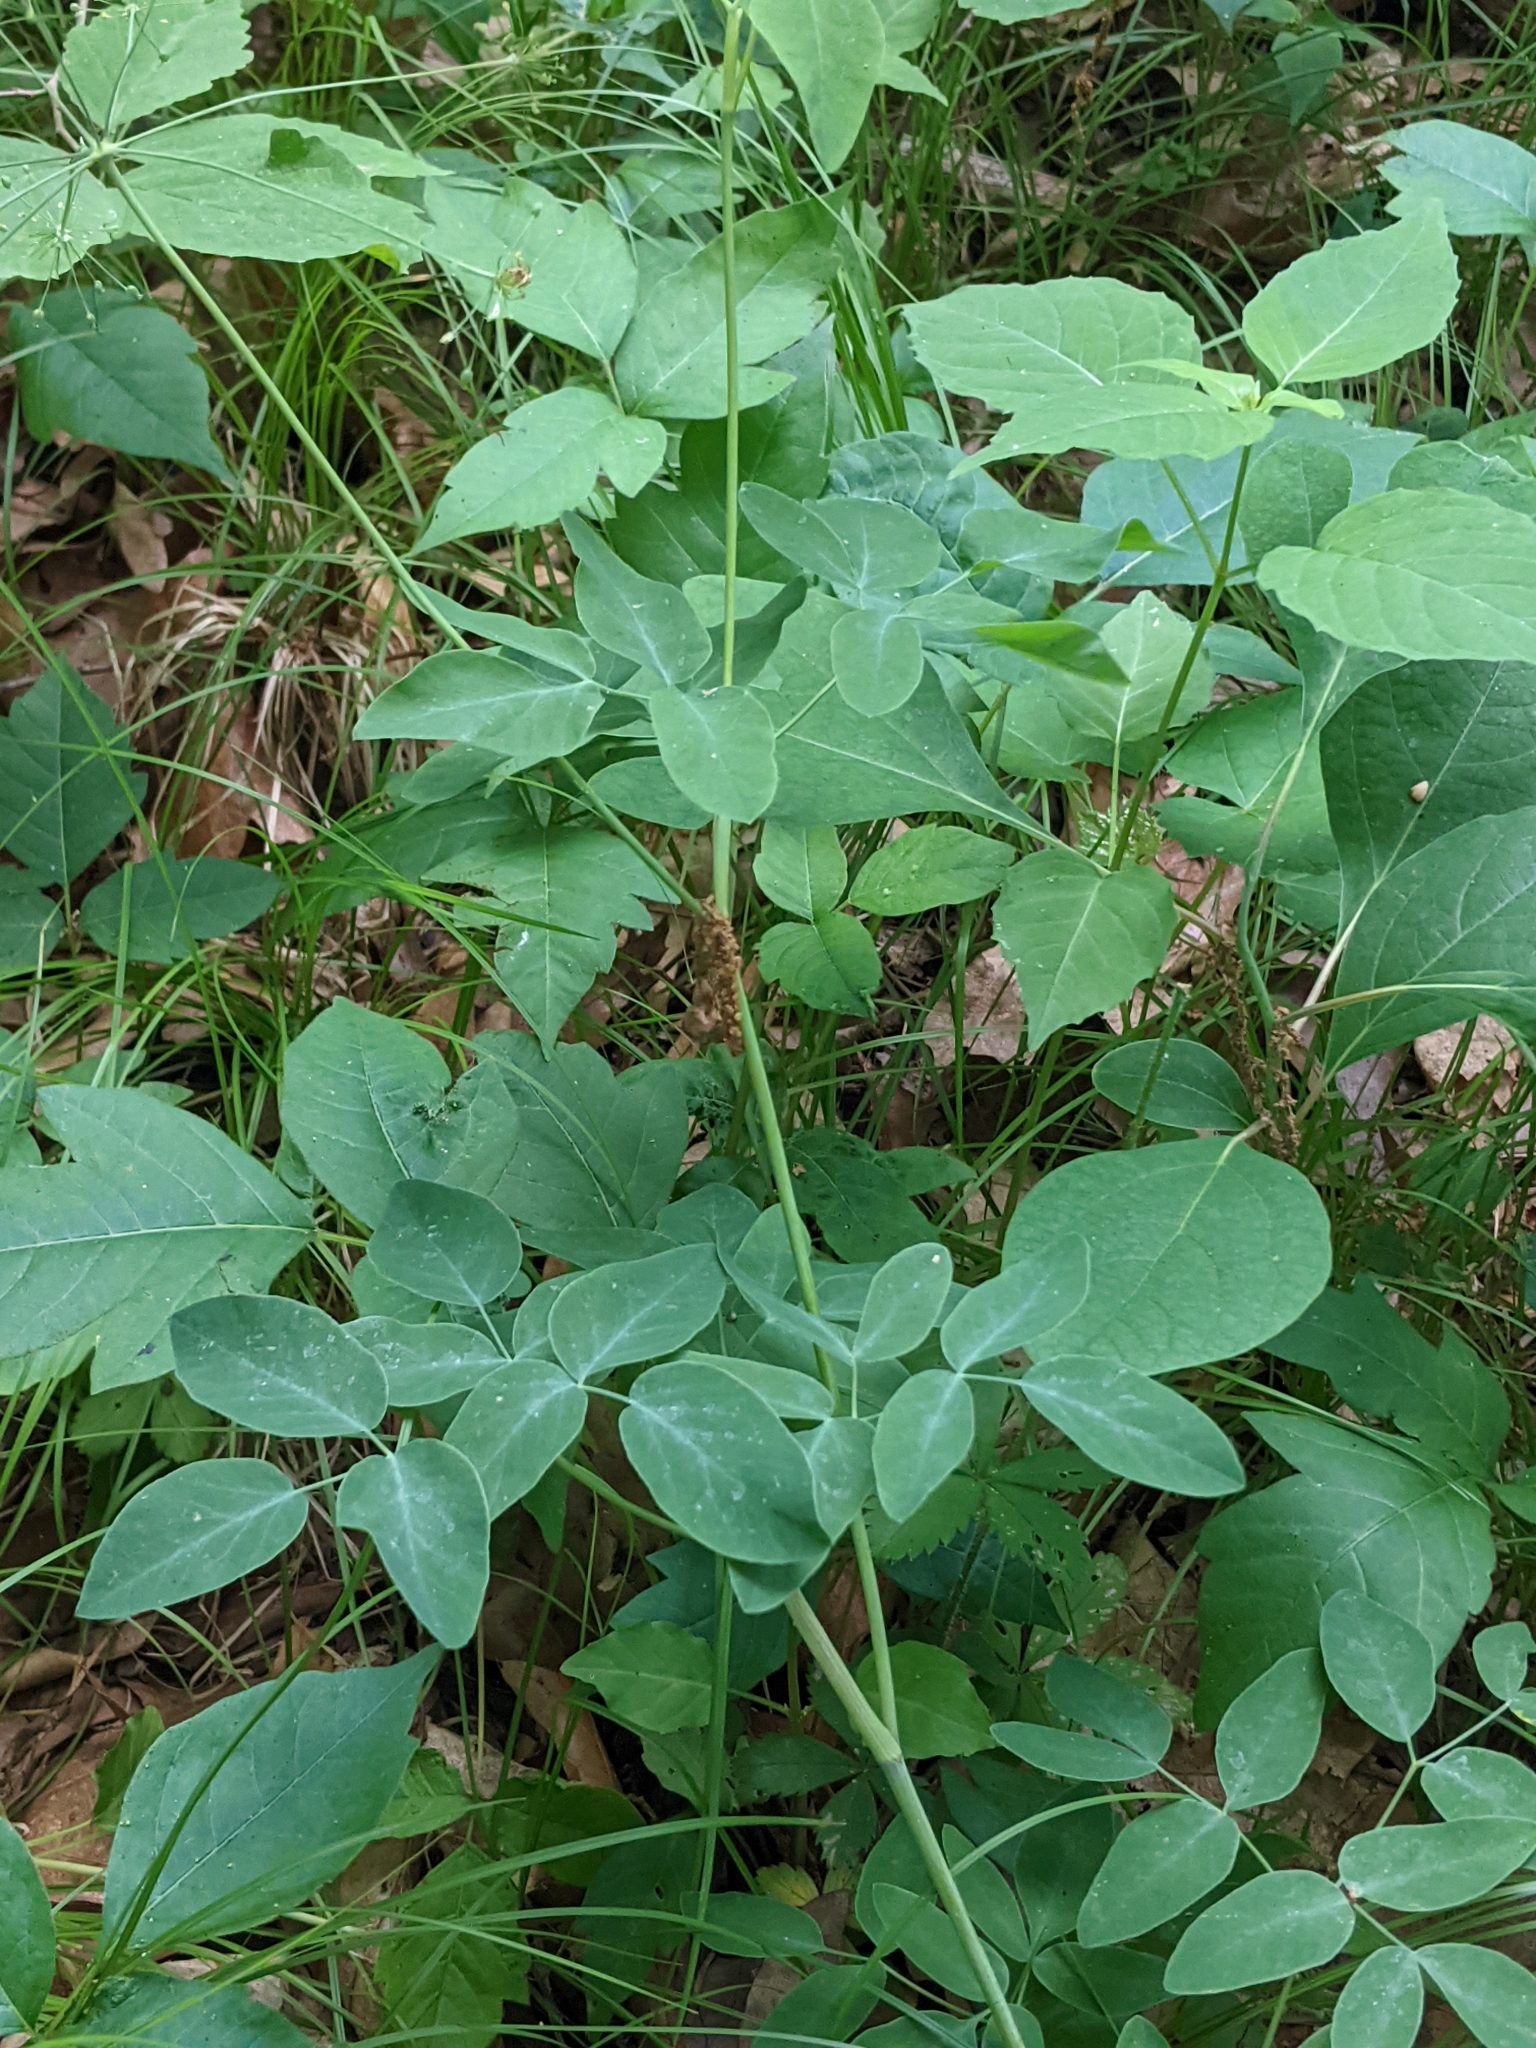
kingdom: Plantae
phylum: Tracheophyta
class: Magnoliopsida
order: Apiales
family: Apiaceae
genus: Taenidia
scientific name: Taenidia integerrima
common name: Golden alexander
